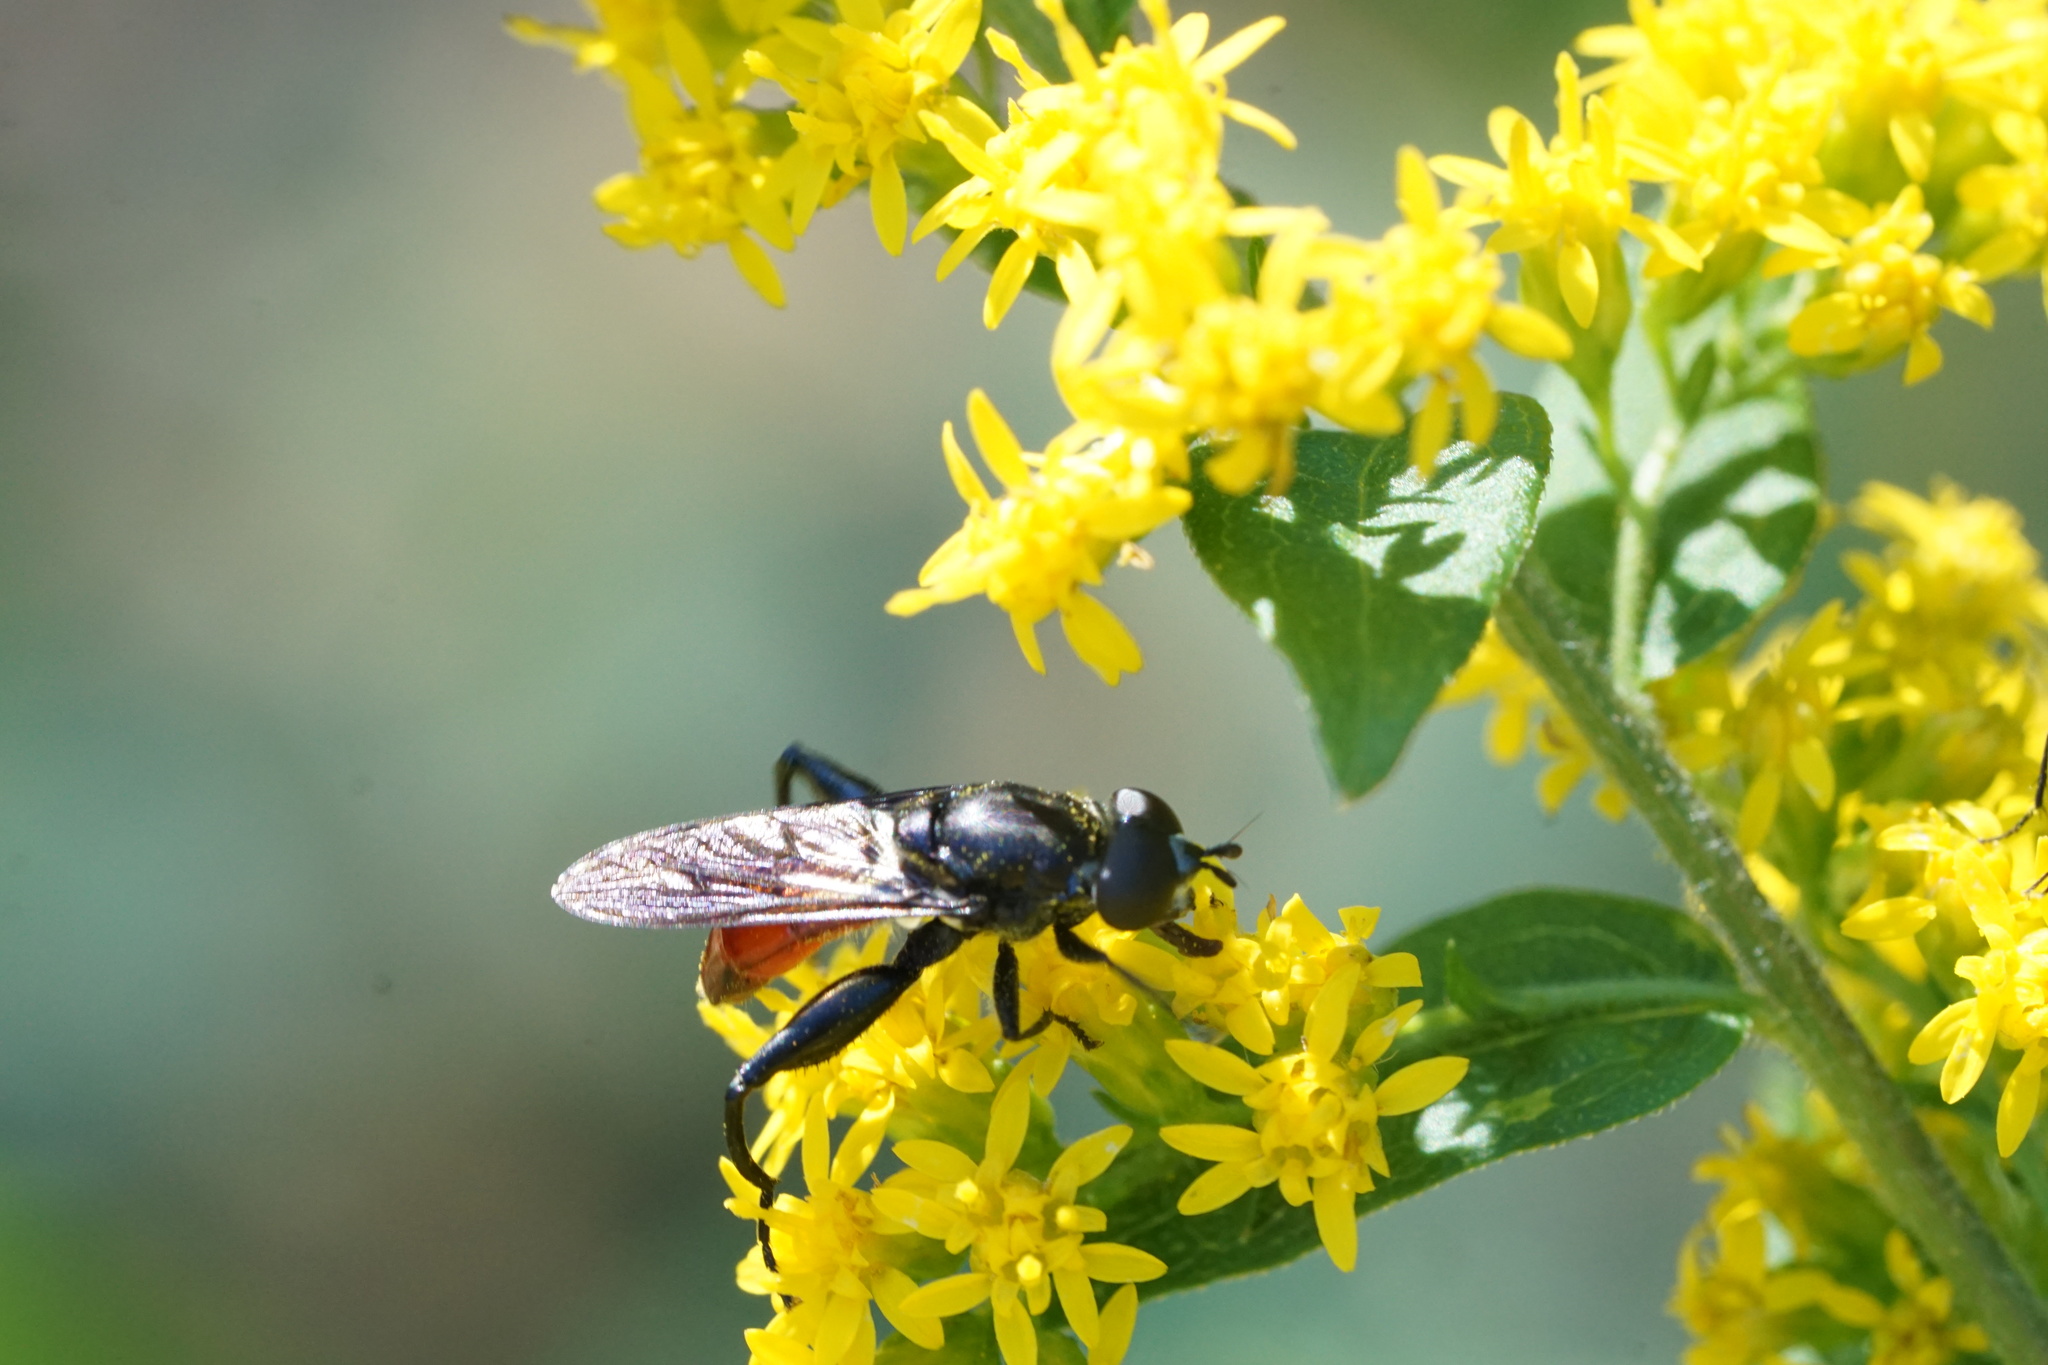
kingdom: Animalia
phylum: Arthropoda
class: Insecta
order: Diptera
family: Syrphidae
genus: Chalcosyrphus
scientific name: Chalcosyrphus piger
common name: Short-haired leafwalker
